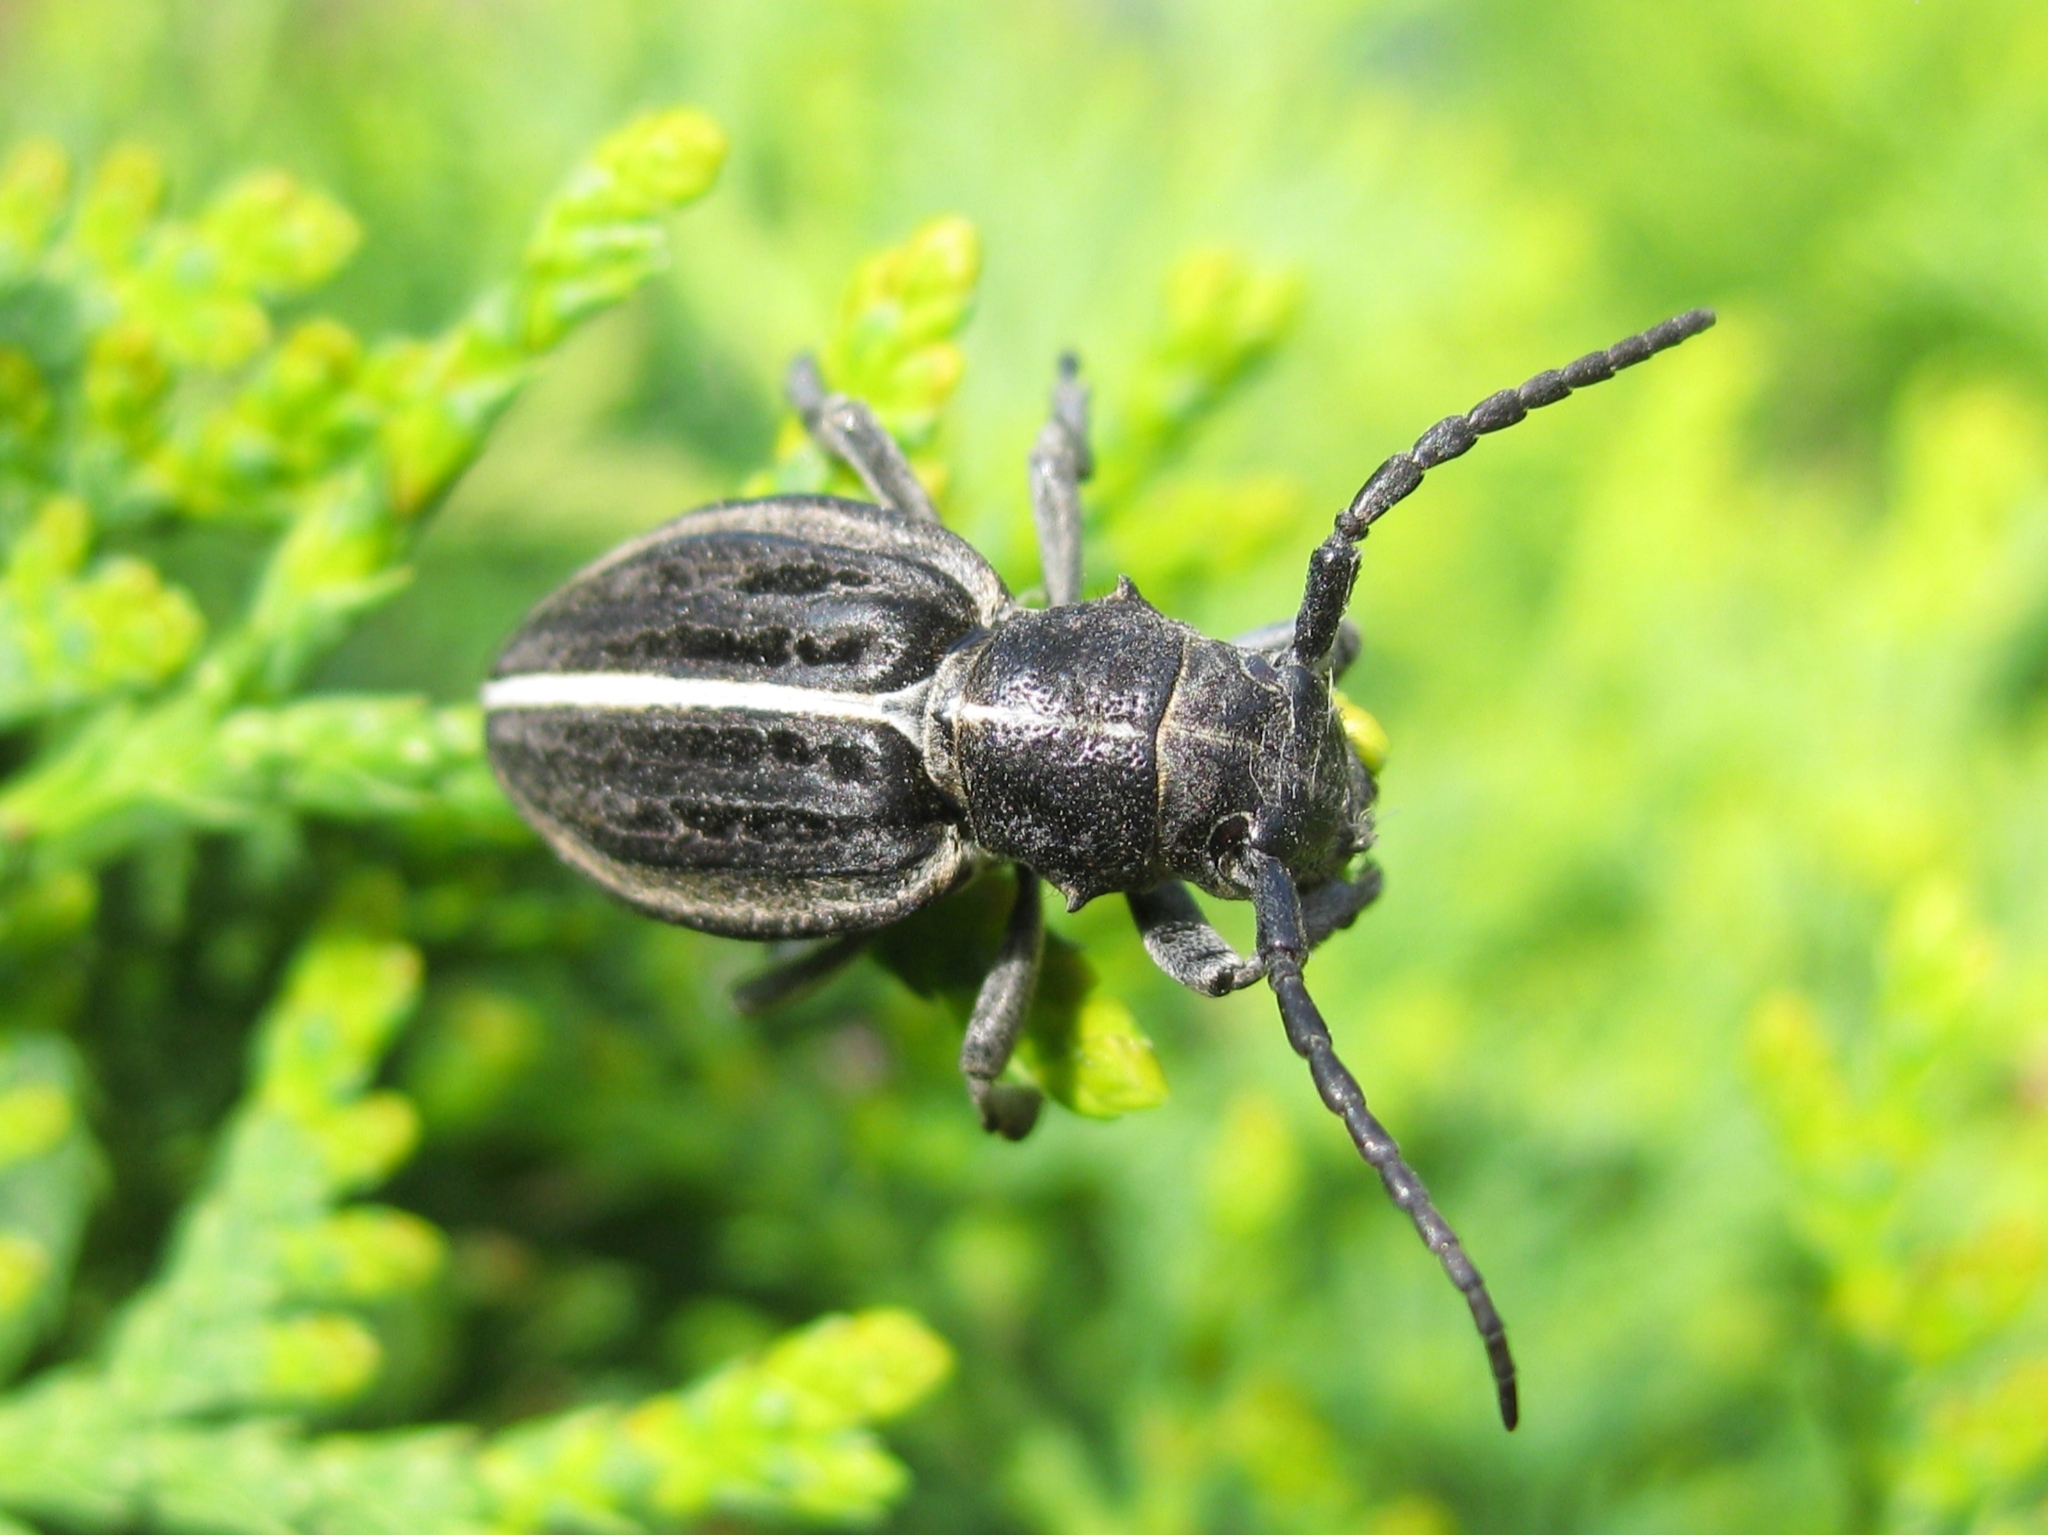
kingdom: Animalia
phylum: Arthropoda
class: Insecta
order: Coleoptera
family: Cerambycidae
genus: Dorcadion
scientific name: Dorcadion holosericeum
